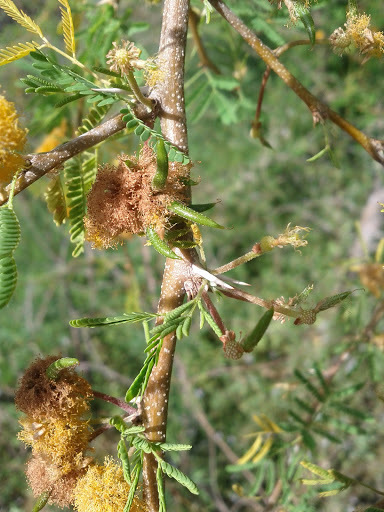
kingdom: Plantae
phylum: Tracheophyta
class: Magnoliopsida
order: Fabales
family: Fabaceae
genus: Vachellia
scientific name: Vachellia constricta
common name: Mescat acacia
